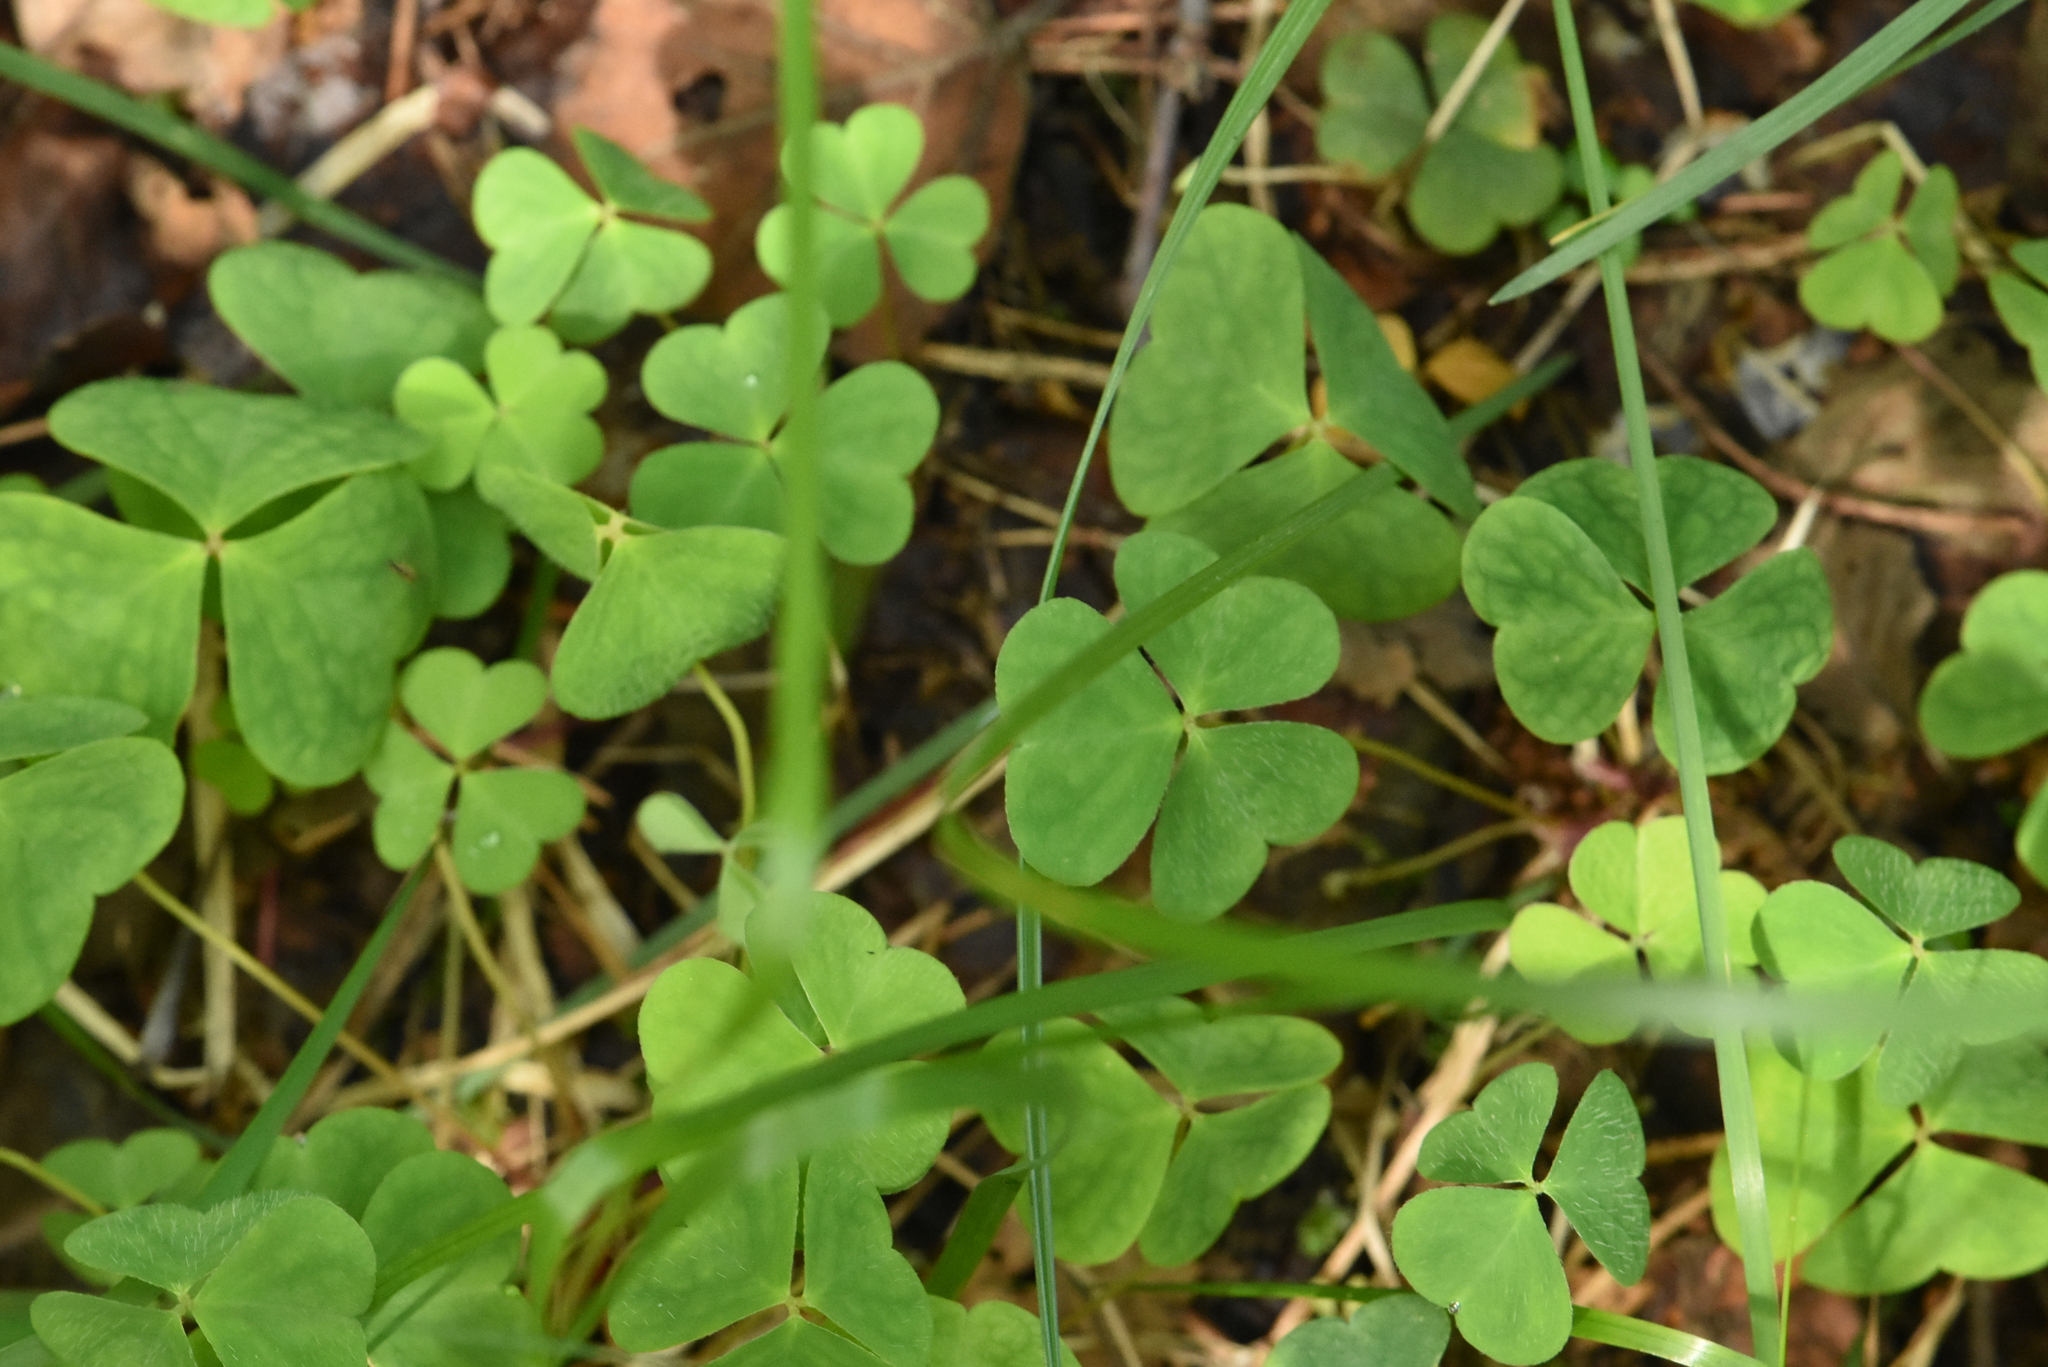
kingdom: Plantae
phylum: Tracheophyta
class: Magnoliopsida
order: Oxalidales
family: Oxalidaceae
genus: Oxalis
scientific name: Oxalis acetosella
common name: Wood-sorrel
